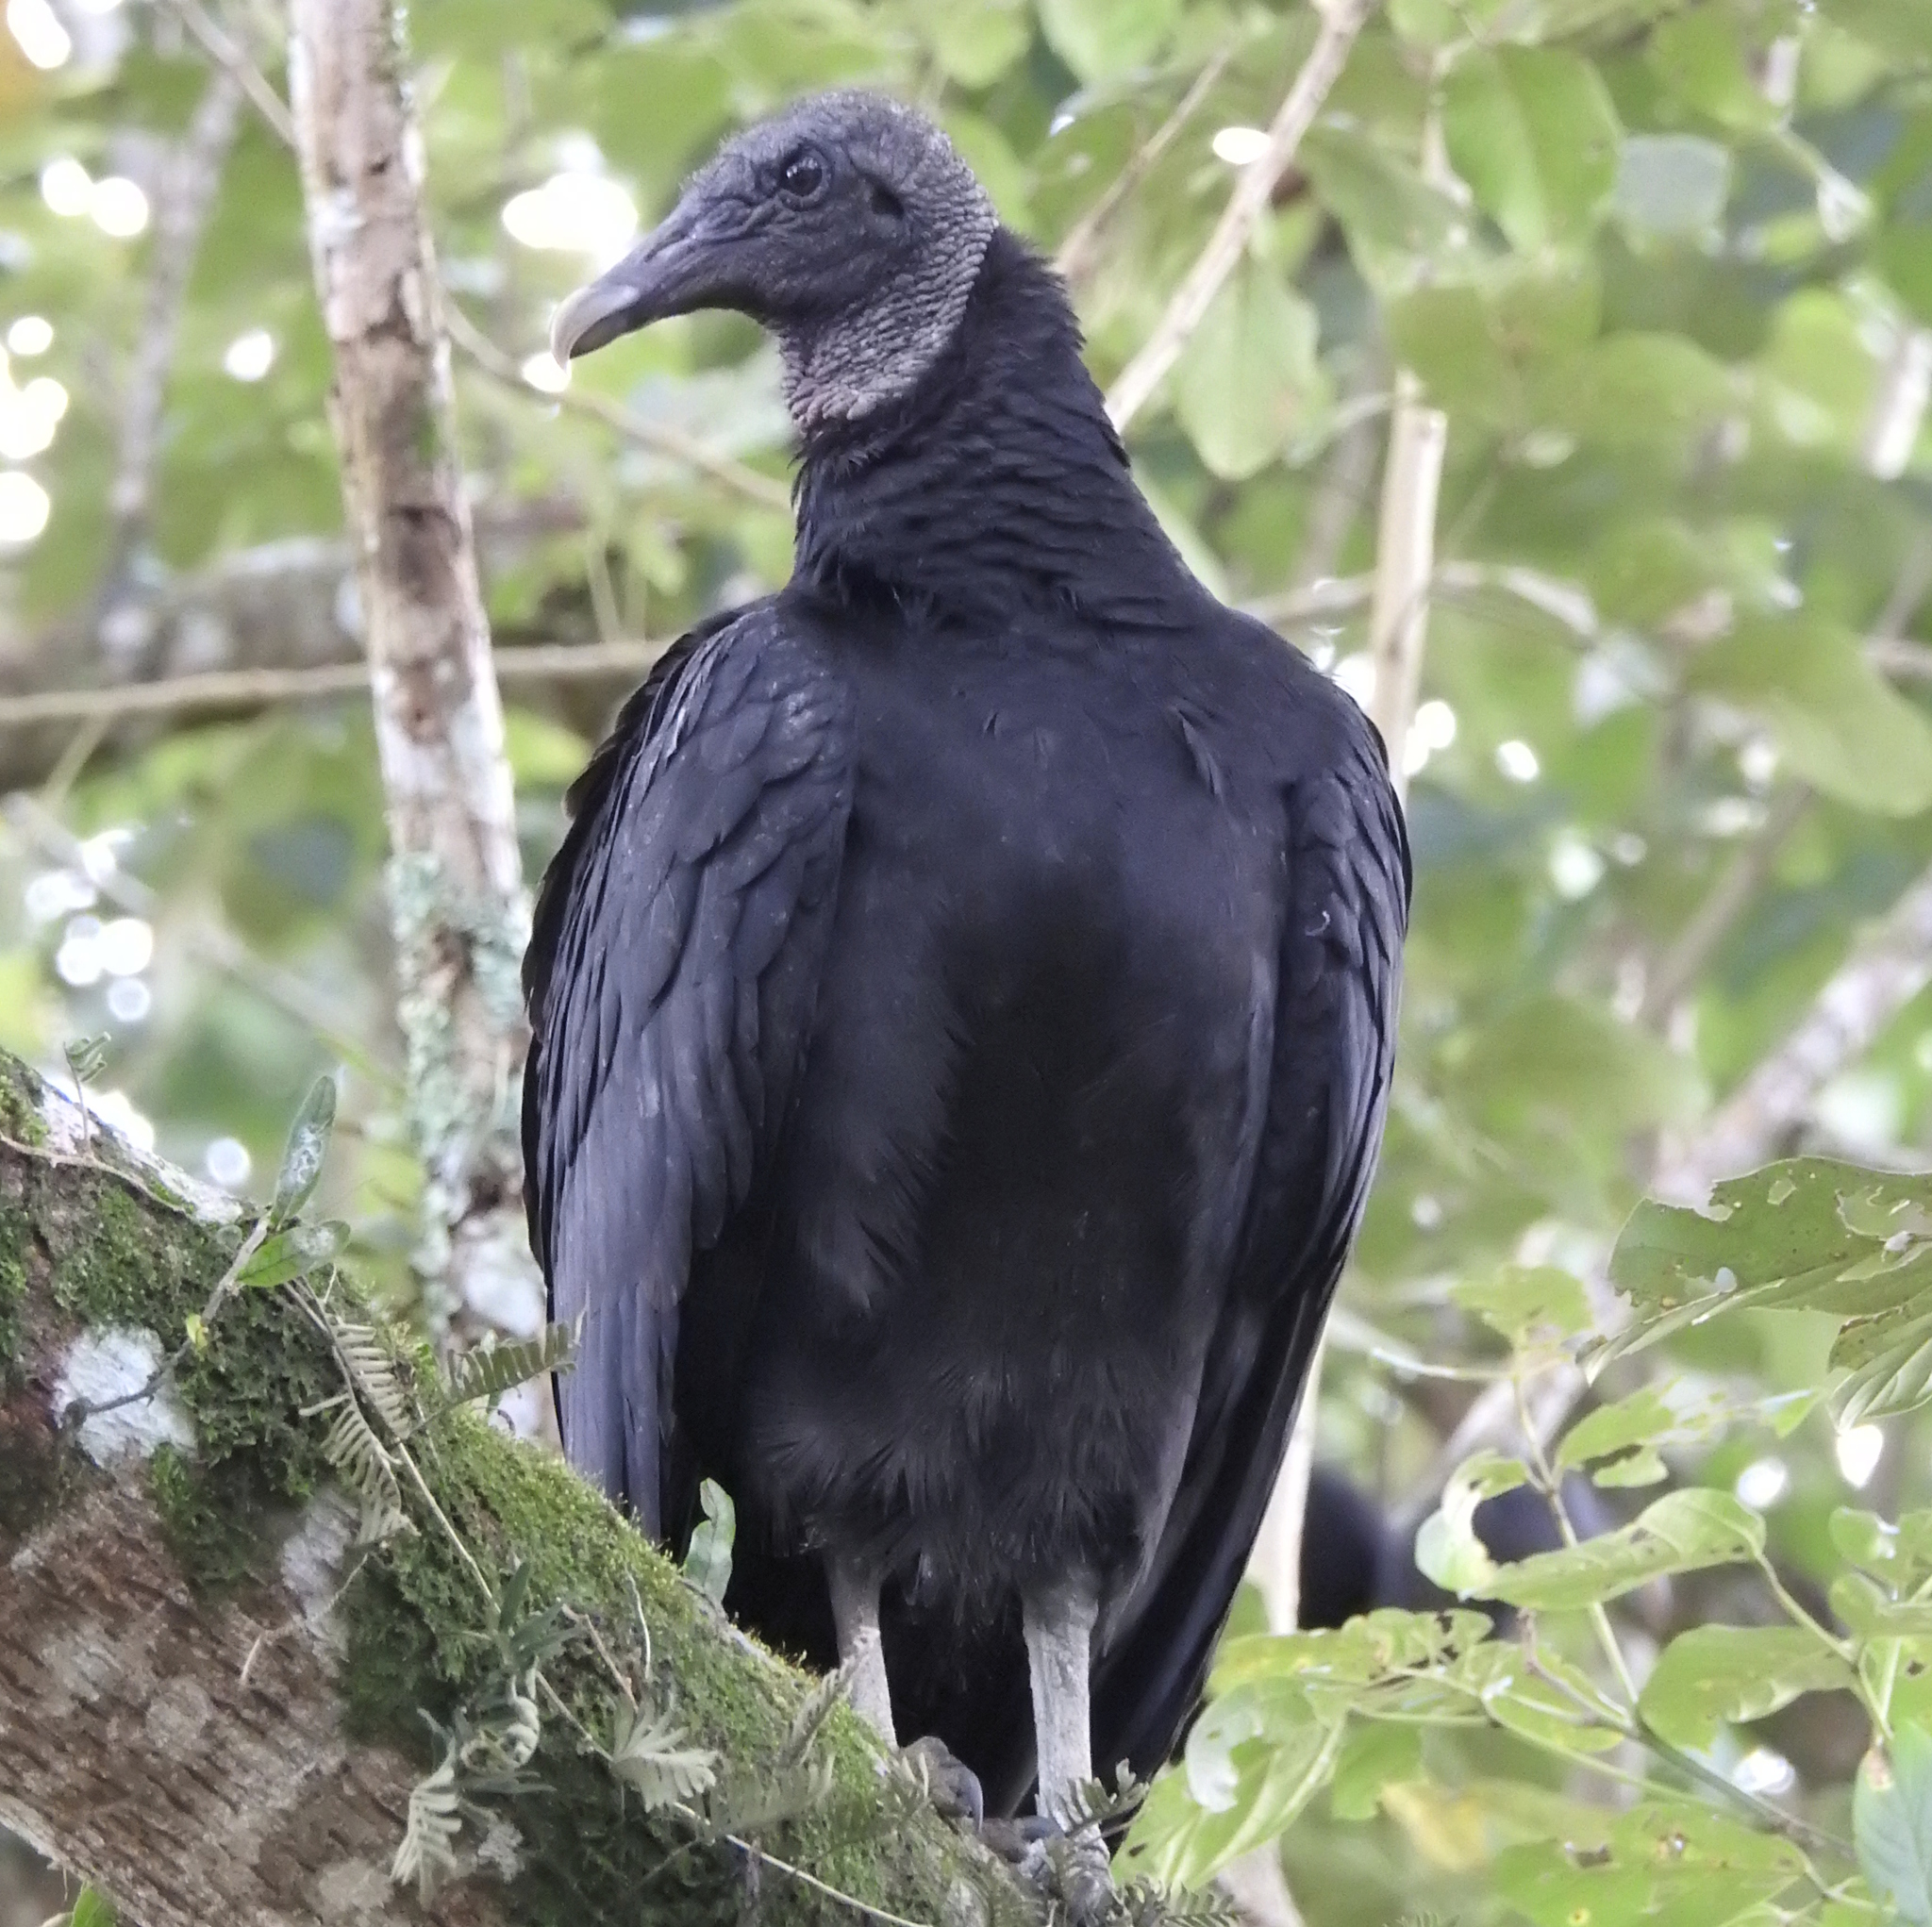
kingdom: Animalia
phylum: Chordata
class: Aves
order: Accipitriformes
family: Cathartidae
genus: Coragyps
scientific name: Coragyps atratus
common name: Black vulture
